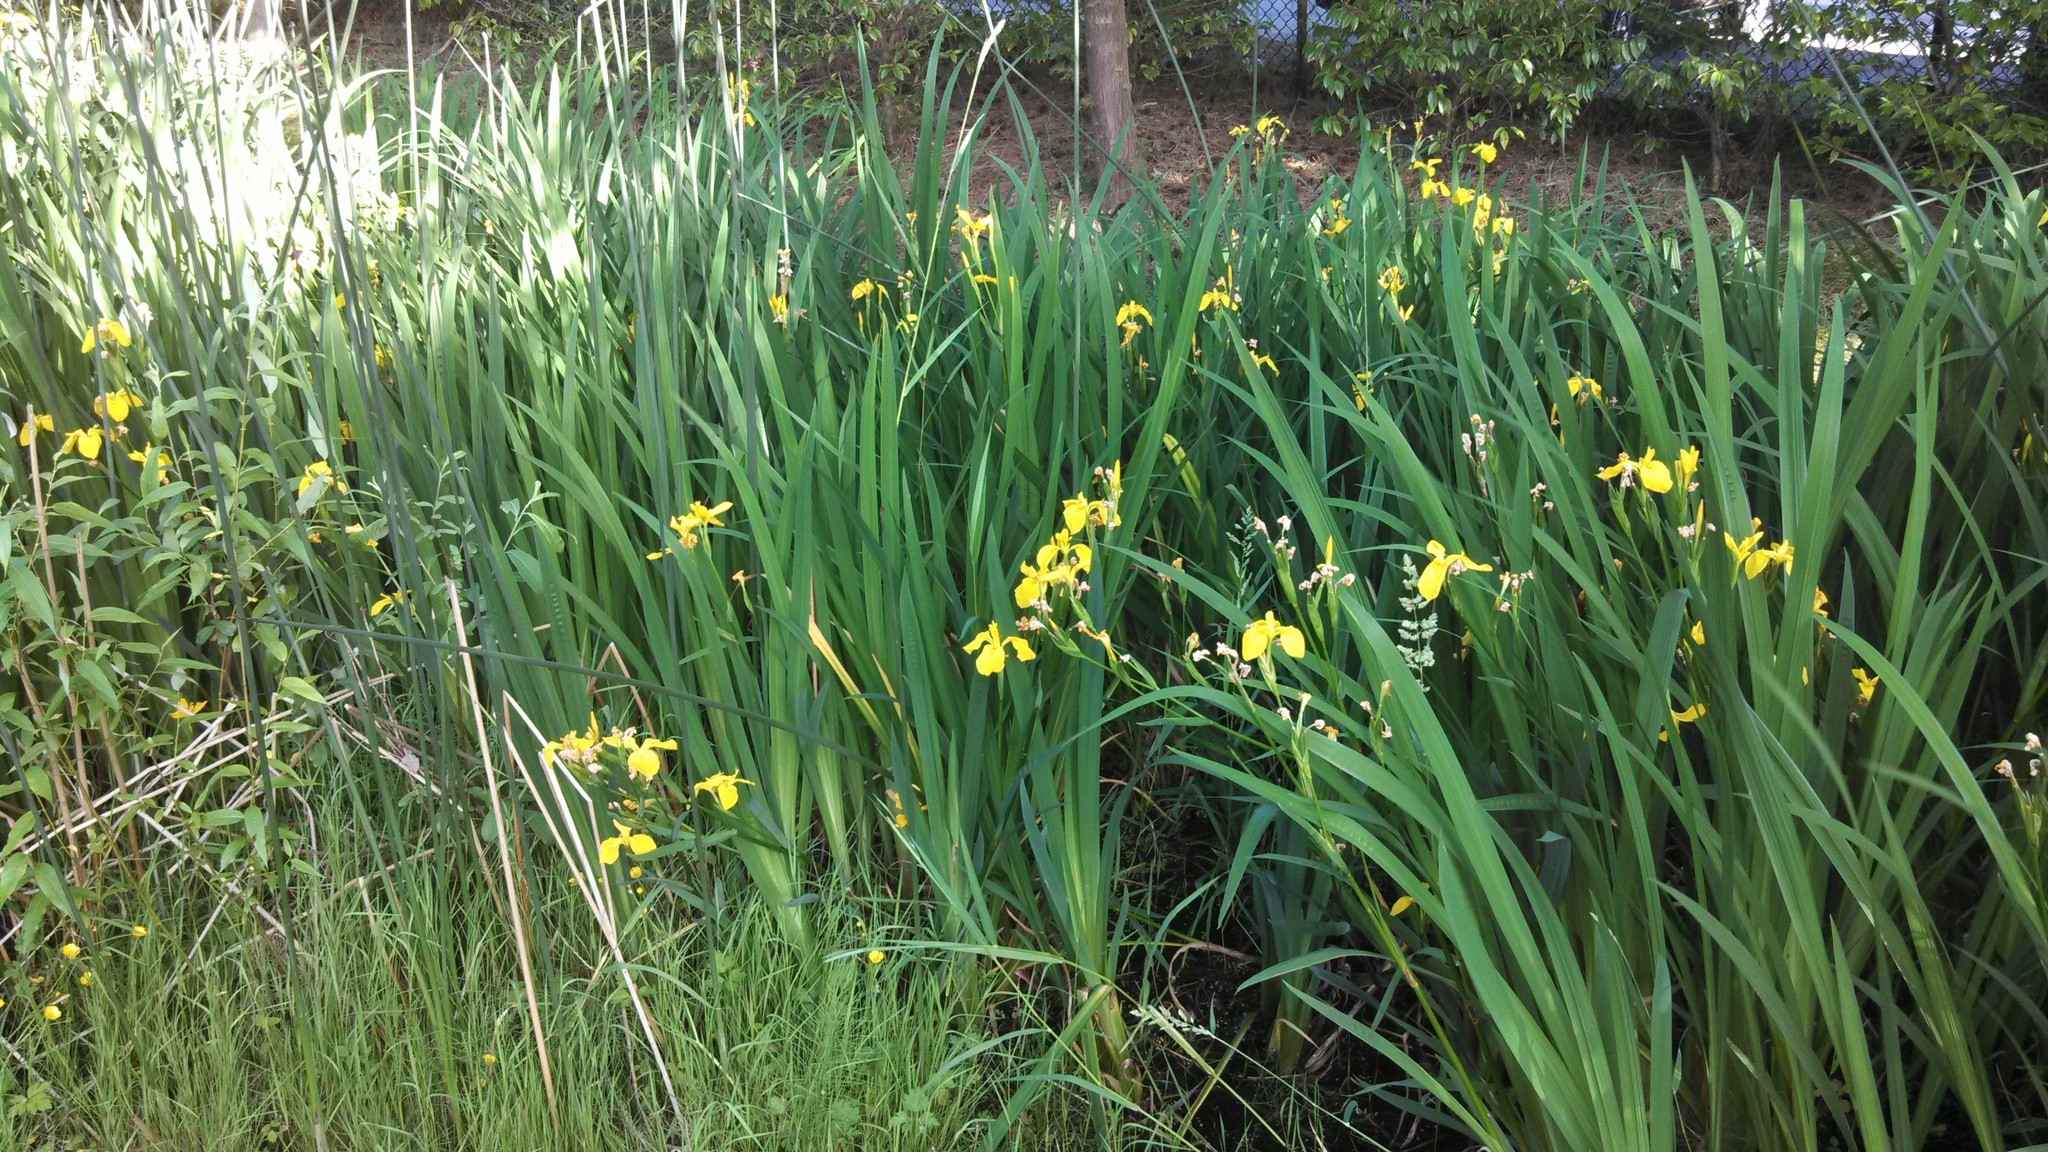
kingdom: Plantae
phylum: Tracheophyta
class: Liliopsida
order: Asparagales
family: Iridaceae
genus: Iris
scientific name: Iris pseudacorus
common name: Yellow flag
